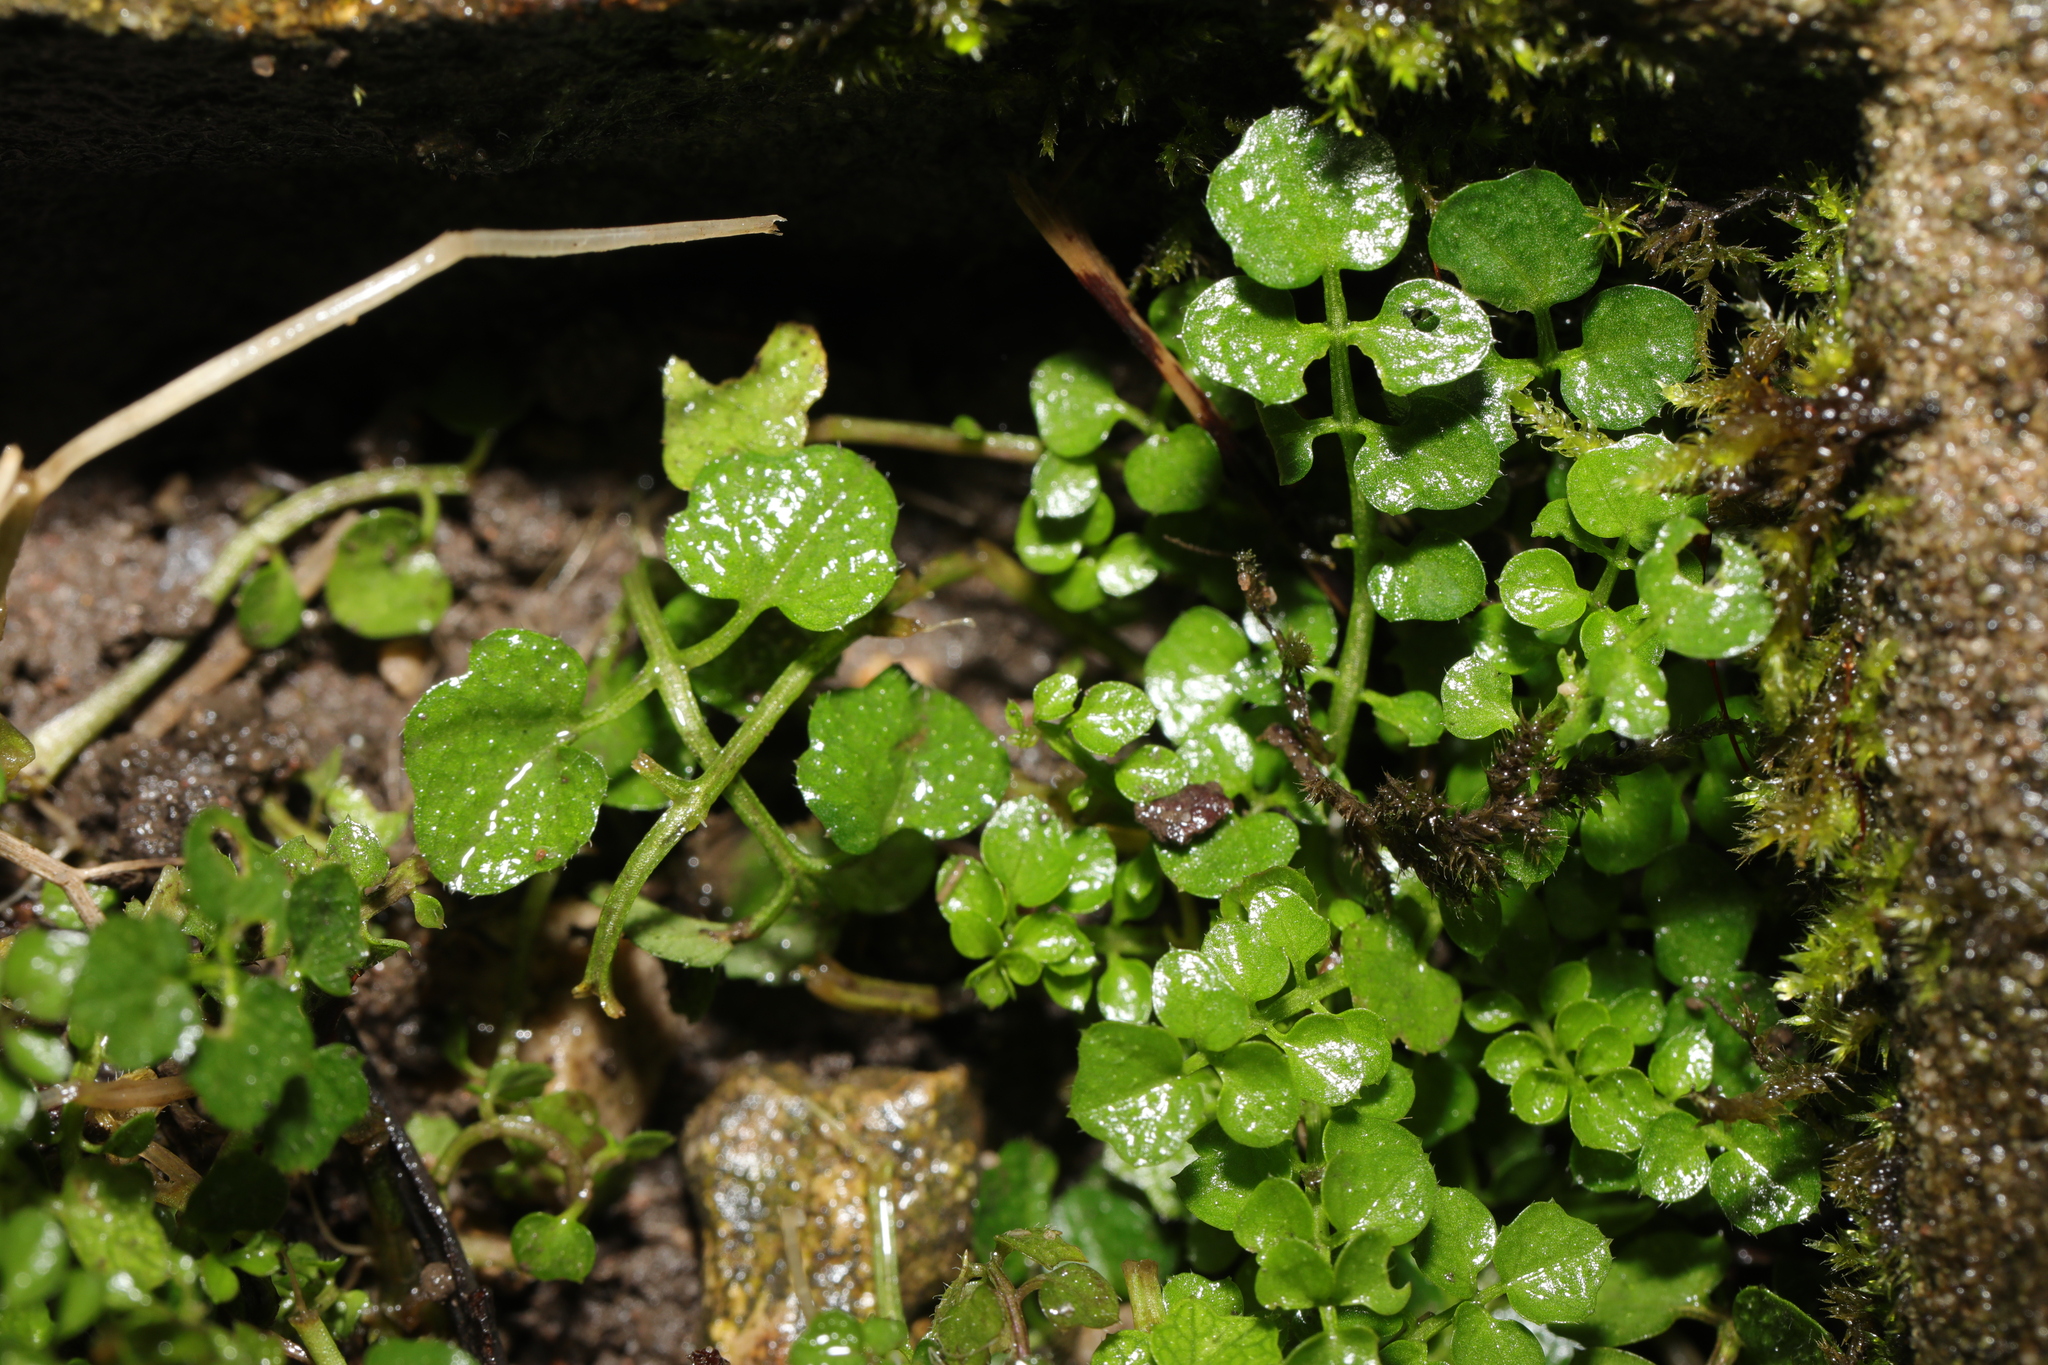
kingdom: Plantae
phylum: Tracheophyta
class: Magnoliopsida
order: Brassicales
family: Brassicaceae
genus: Cardamine
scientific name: Cardamine flexuosa
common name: Woodland bittercress
